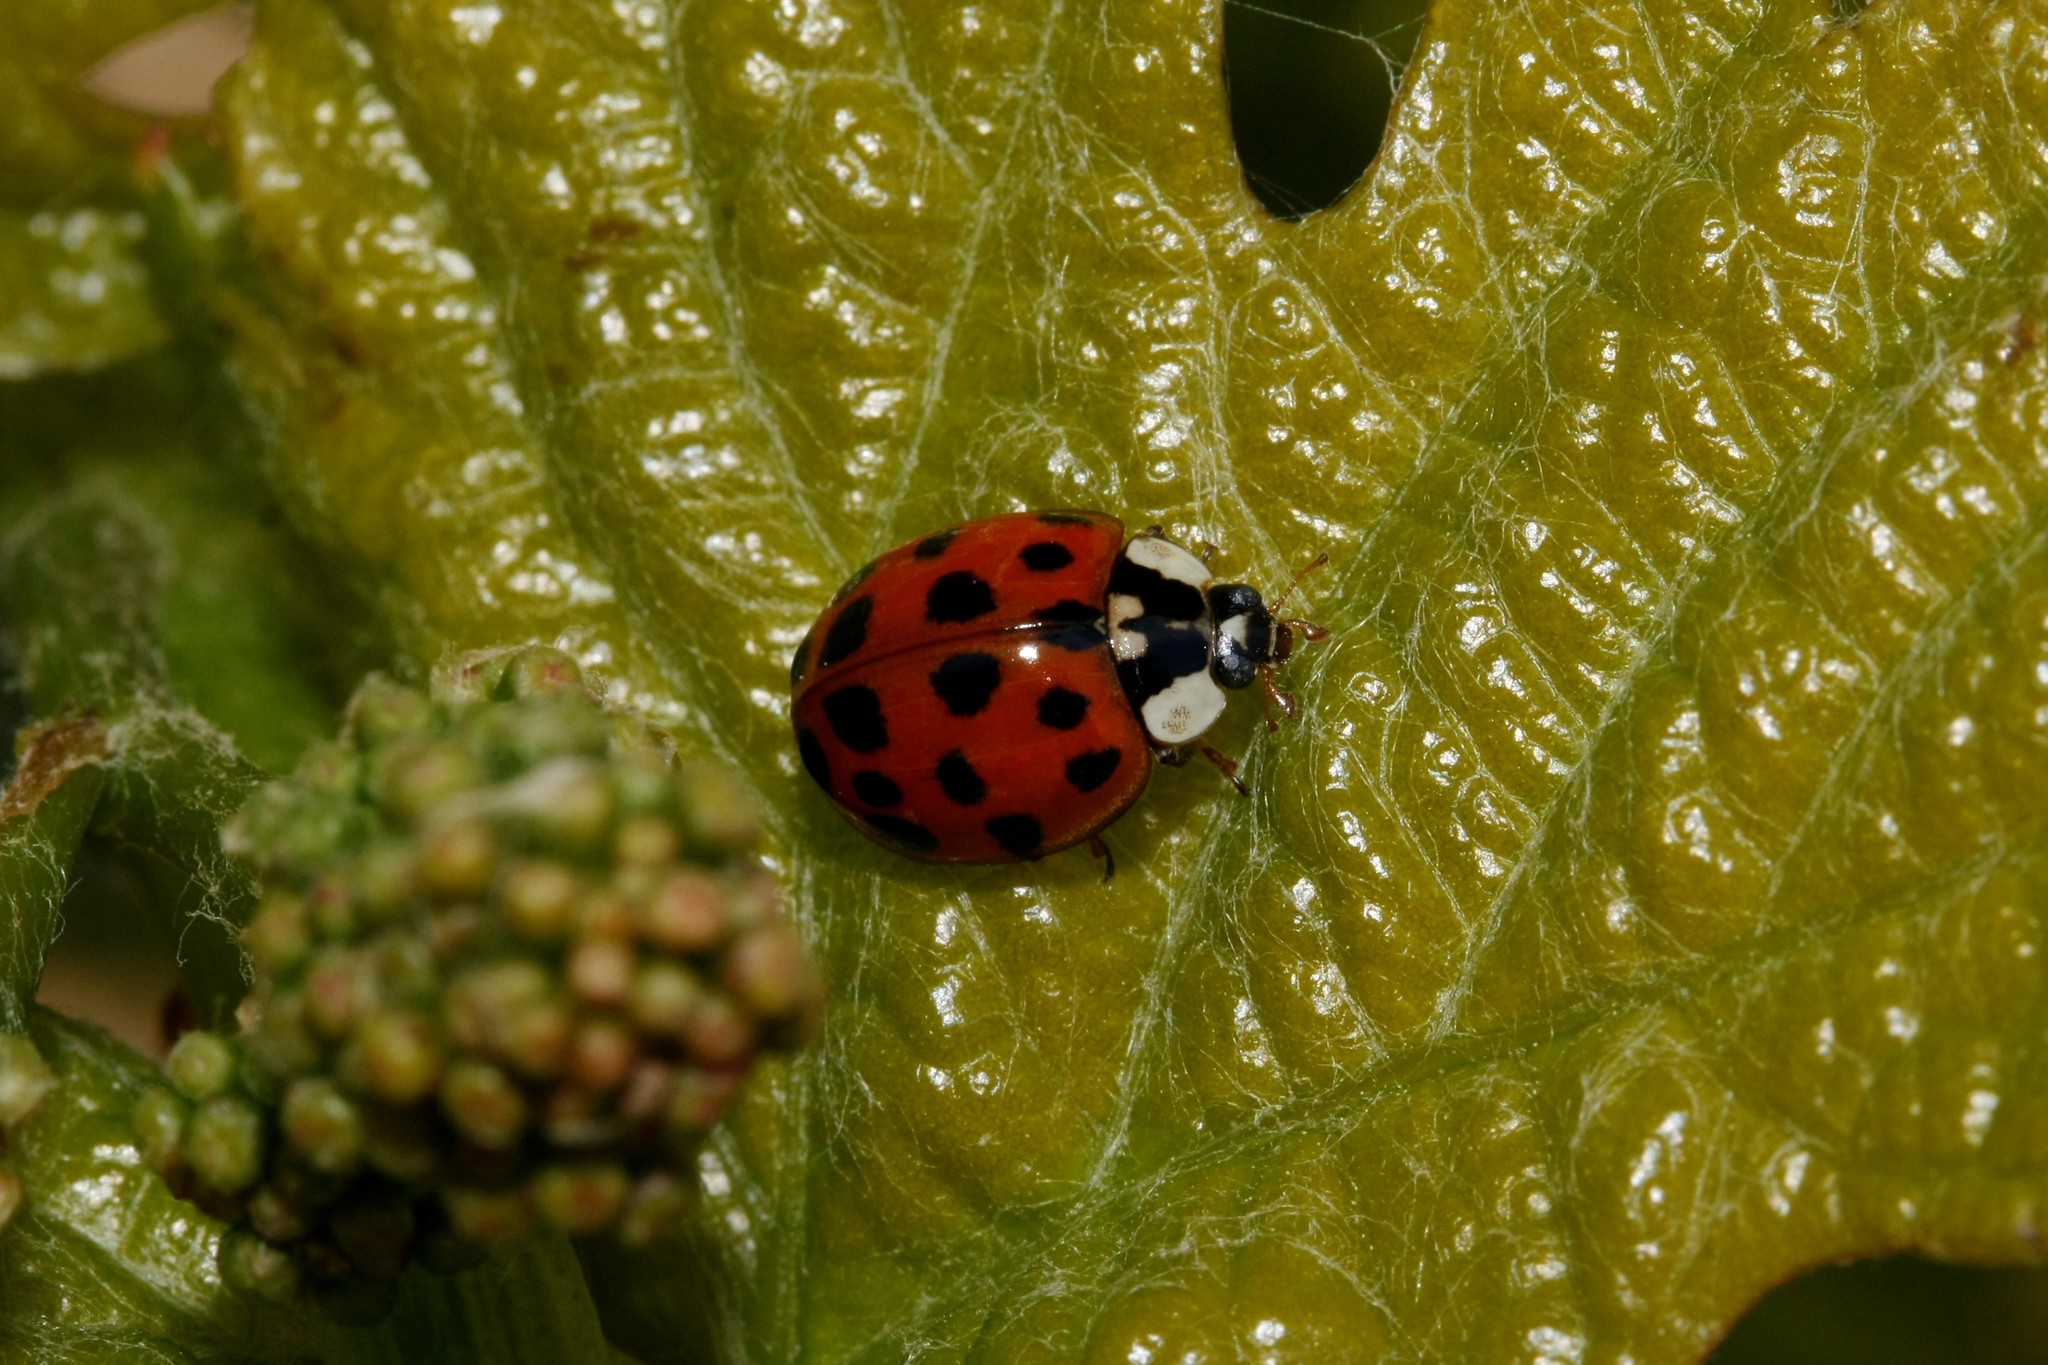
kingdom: Animalia
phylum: Arthropoda
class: Insecta
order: Coleoptera
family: Coccinellidae
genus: Harmonia
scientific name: Harmonia axyridis
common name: Harlequin ladybird
